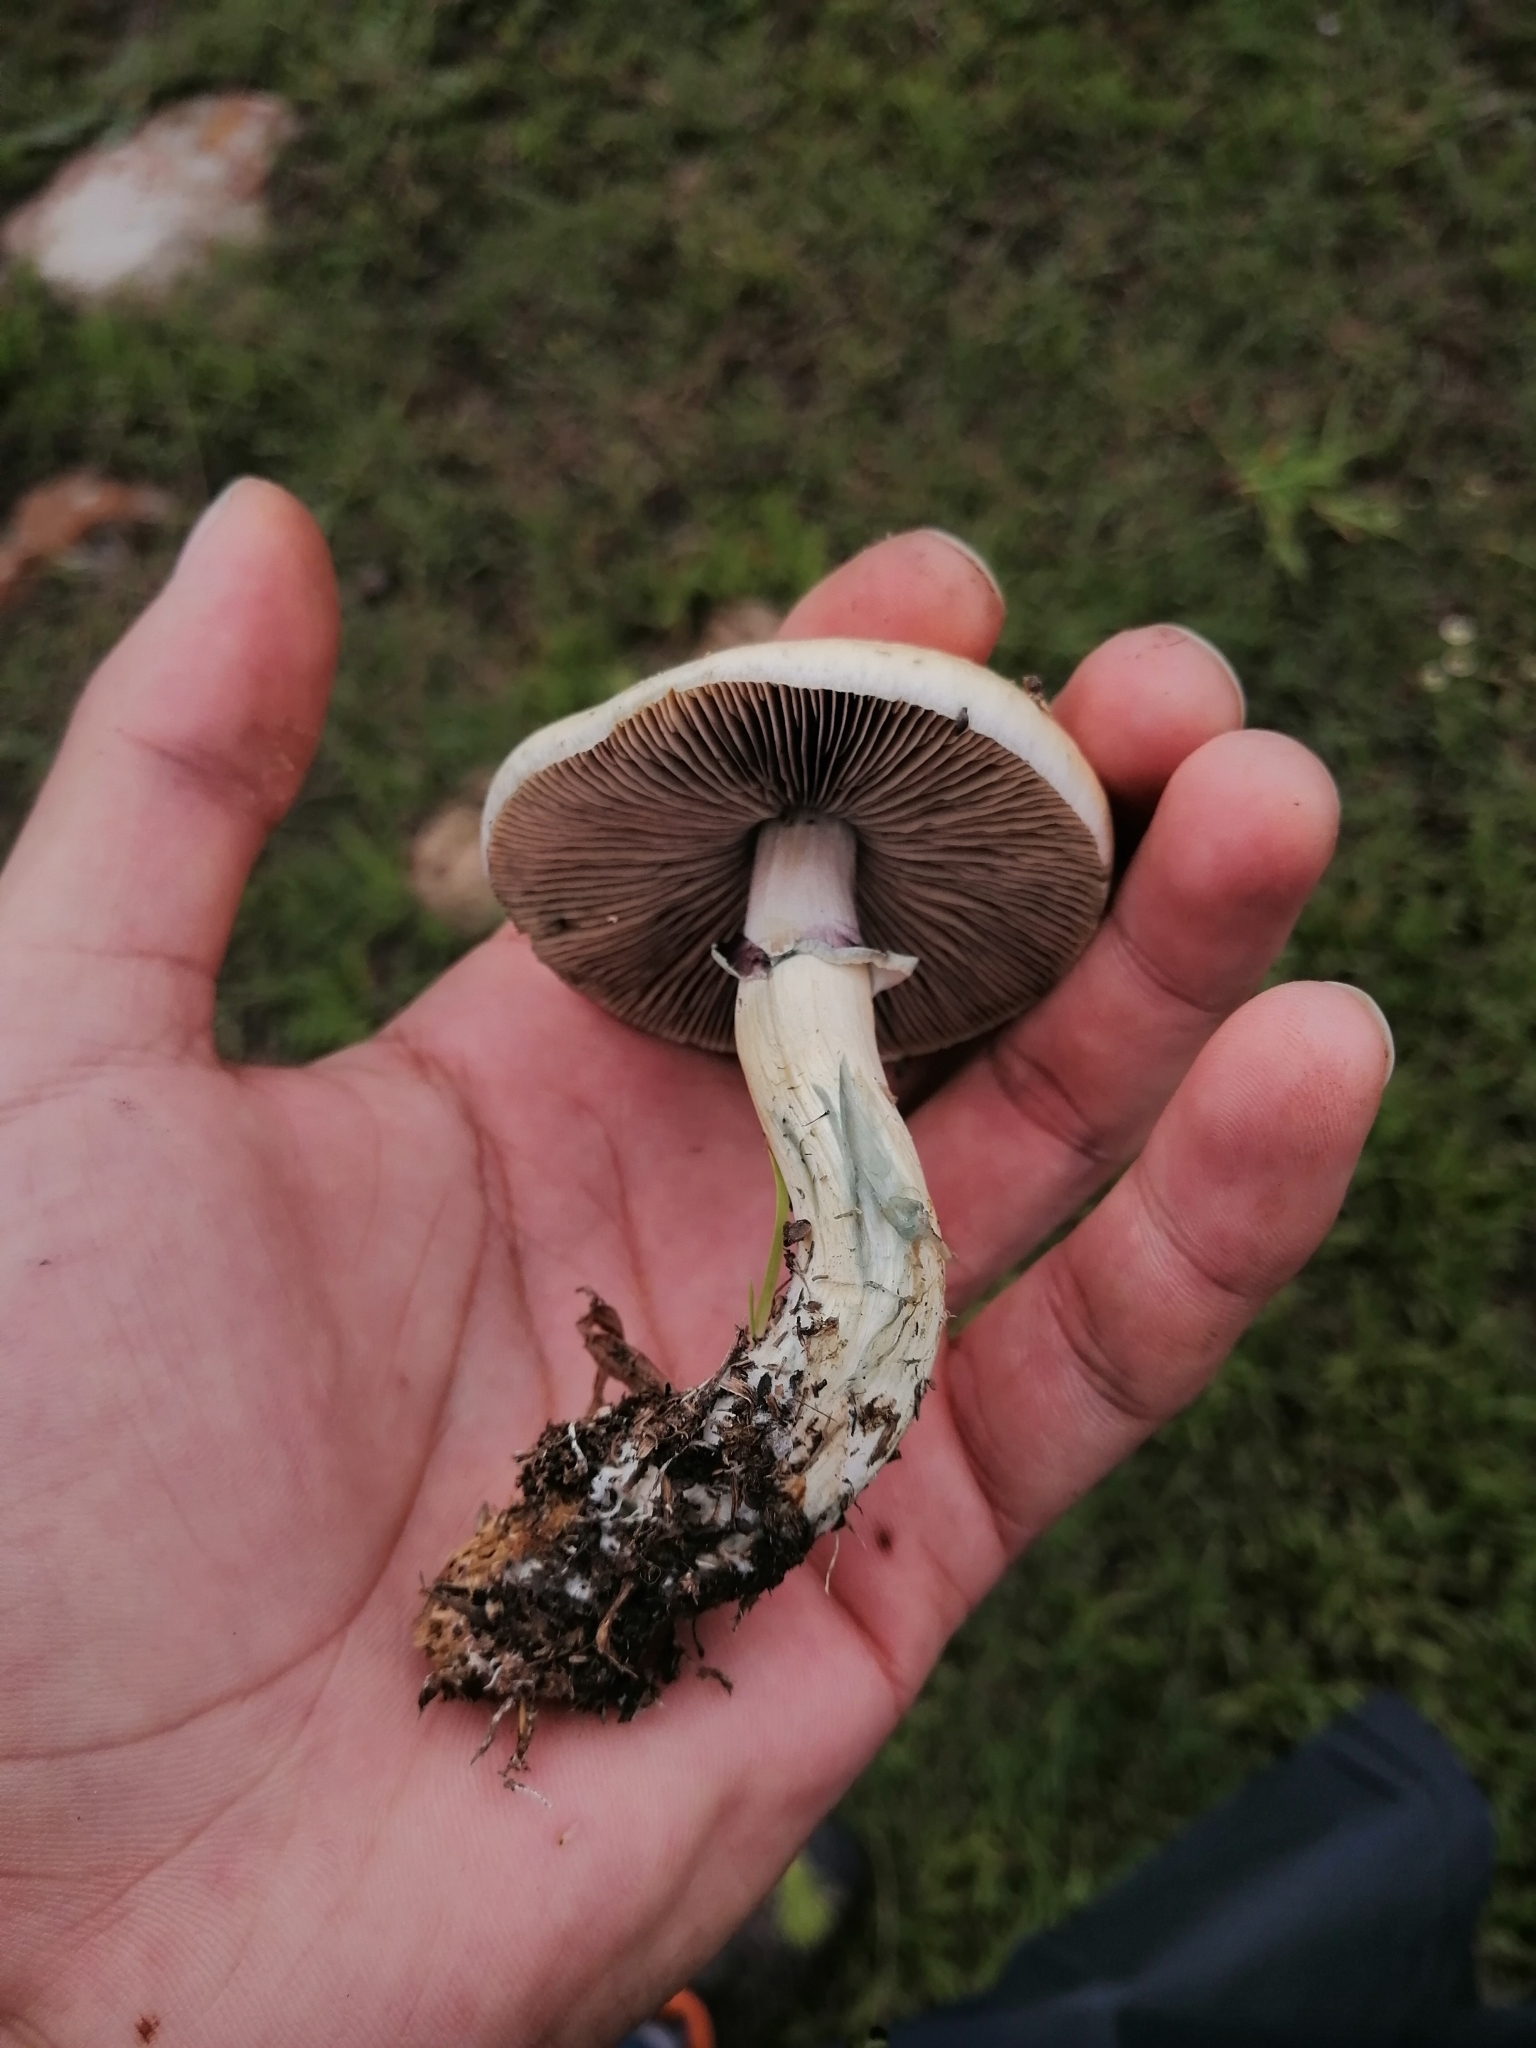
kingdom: Fungi
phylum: Basidiomycota
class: Agaricomycetes
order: Agaricales
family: Hymenogastraceae
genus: Psilocybe
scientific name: Psilocybe cubensis
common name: Golden brownie
